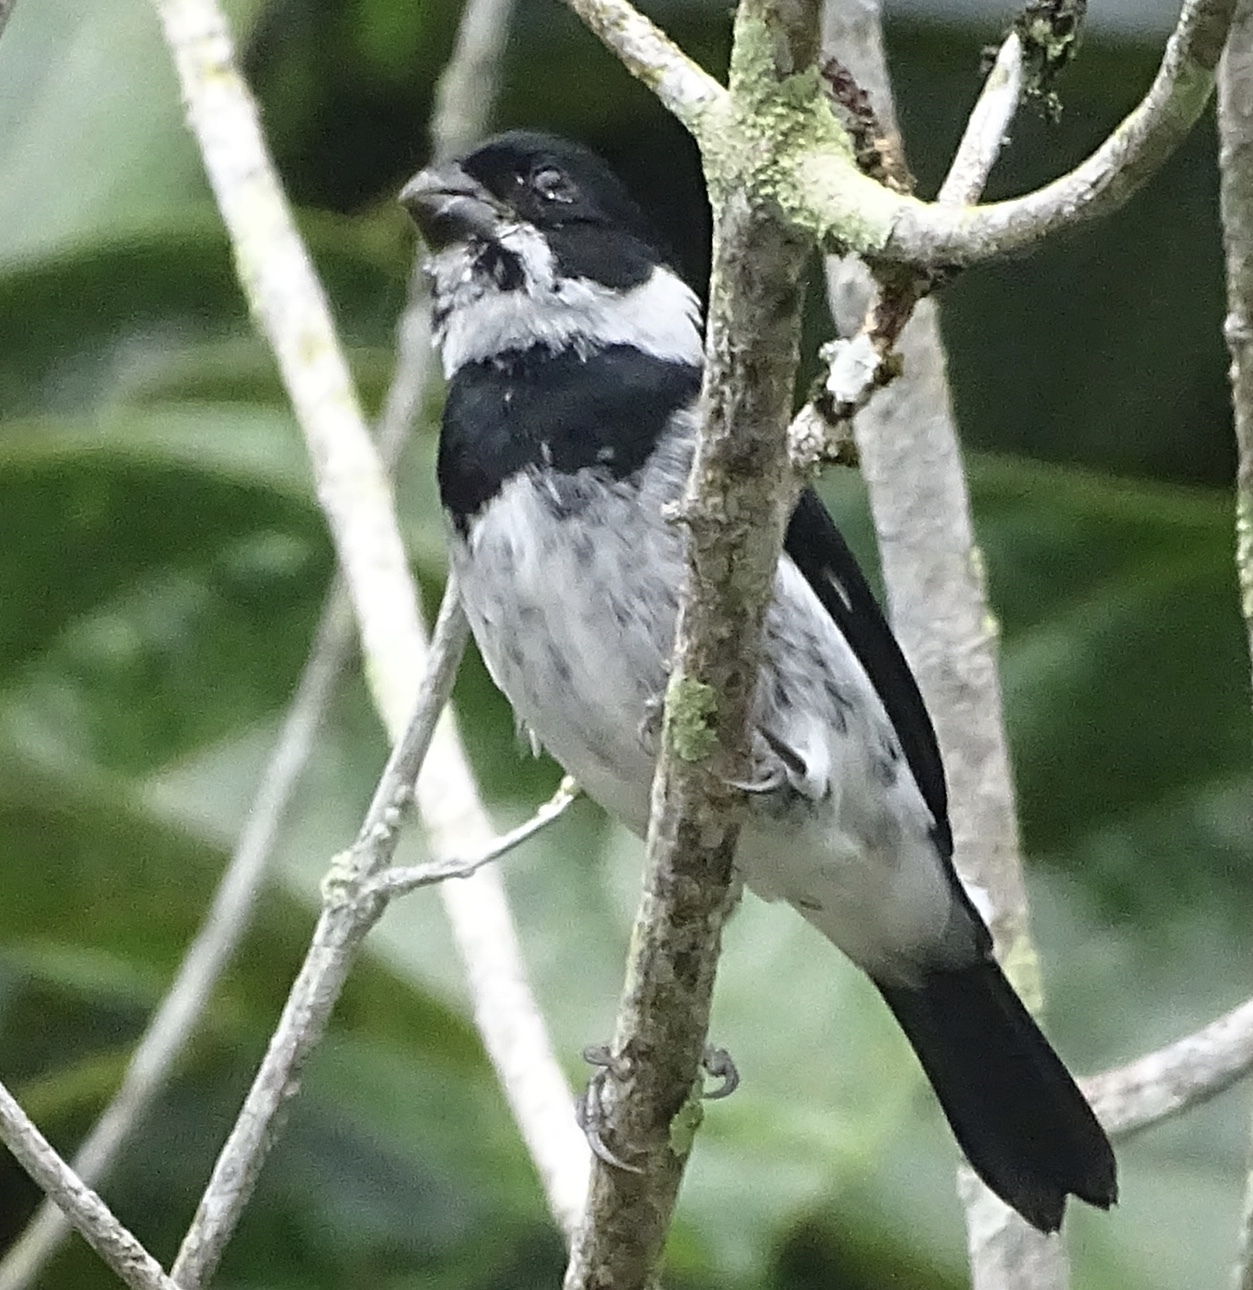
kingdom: Animalia
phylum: Chordata
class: Aves
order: Passeriformes
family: Thraupidae
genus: Sporophila
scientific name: Sporophila corvina
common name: Variable seedeater
